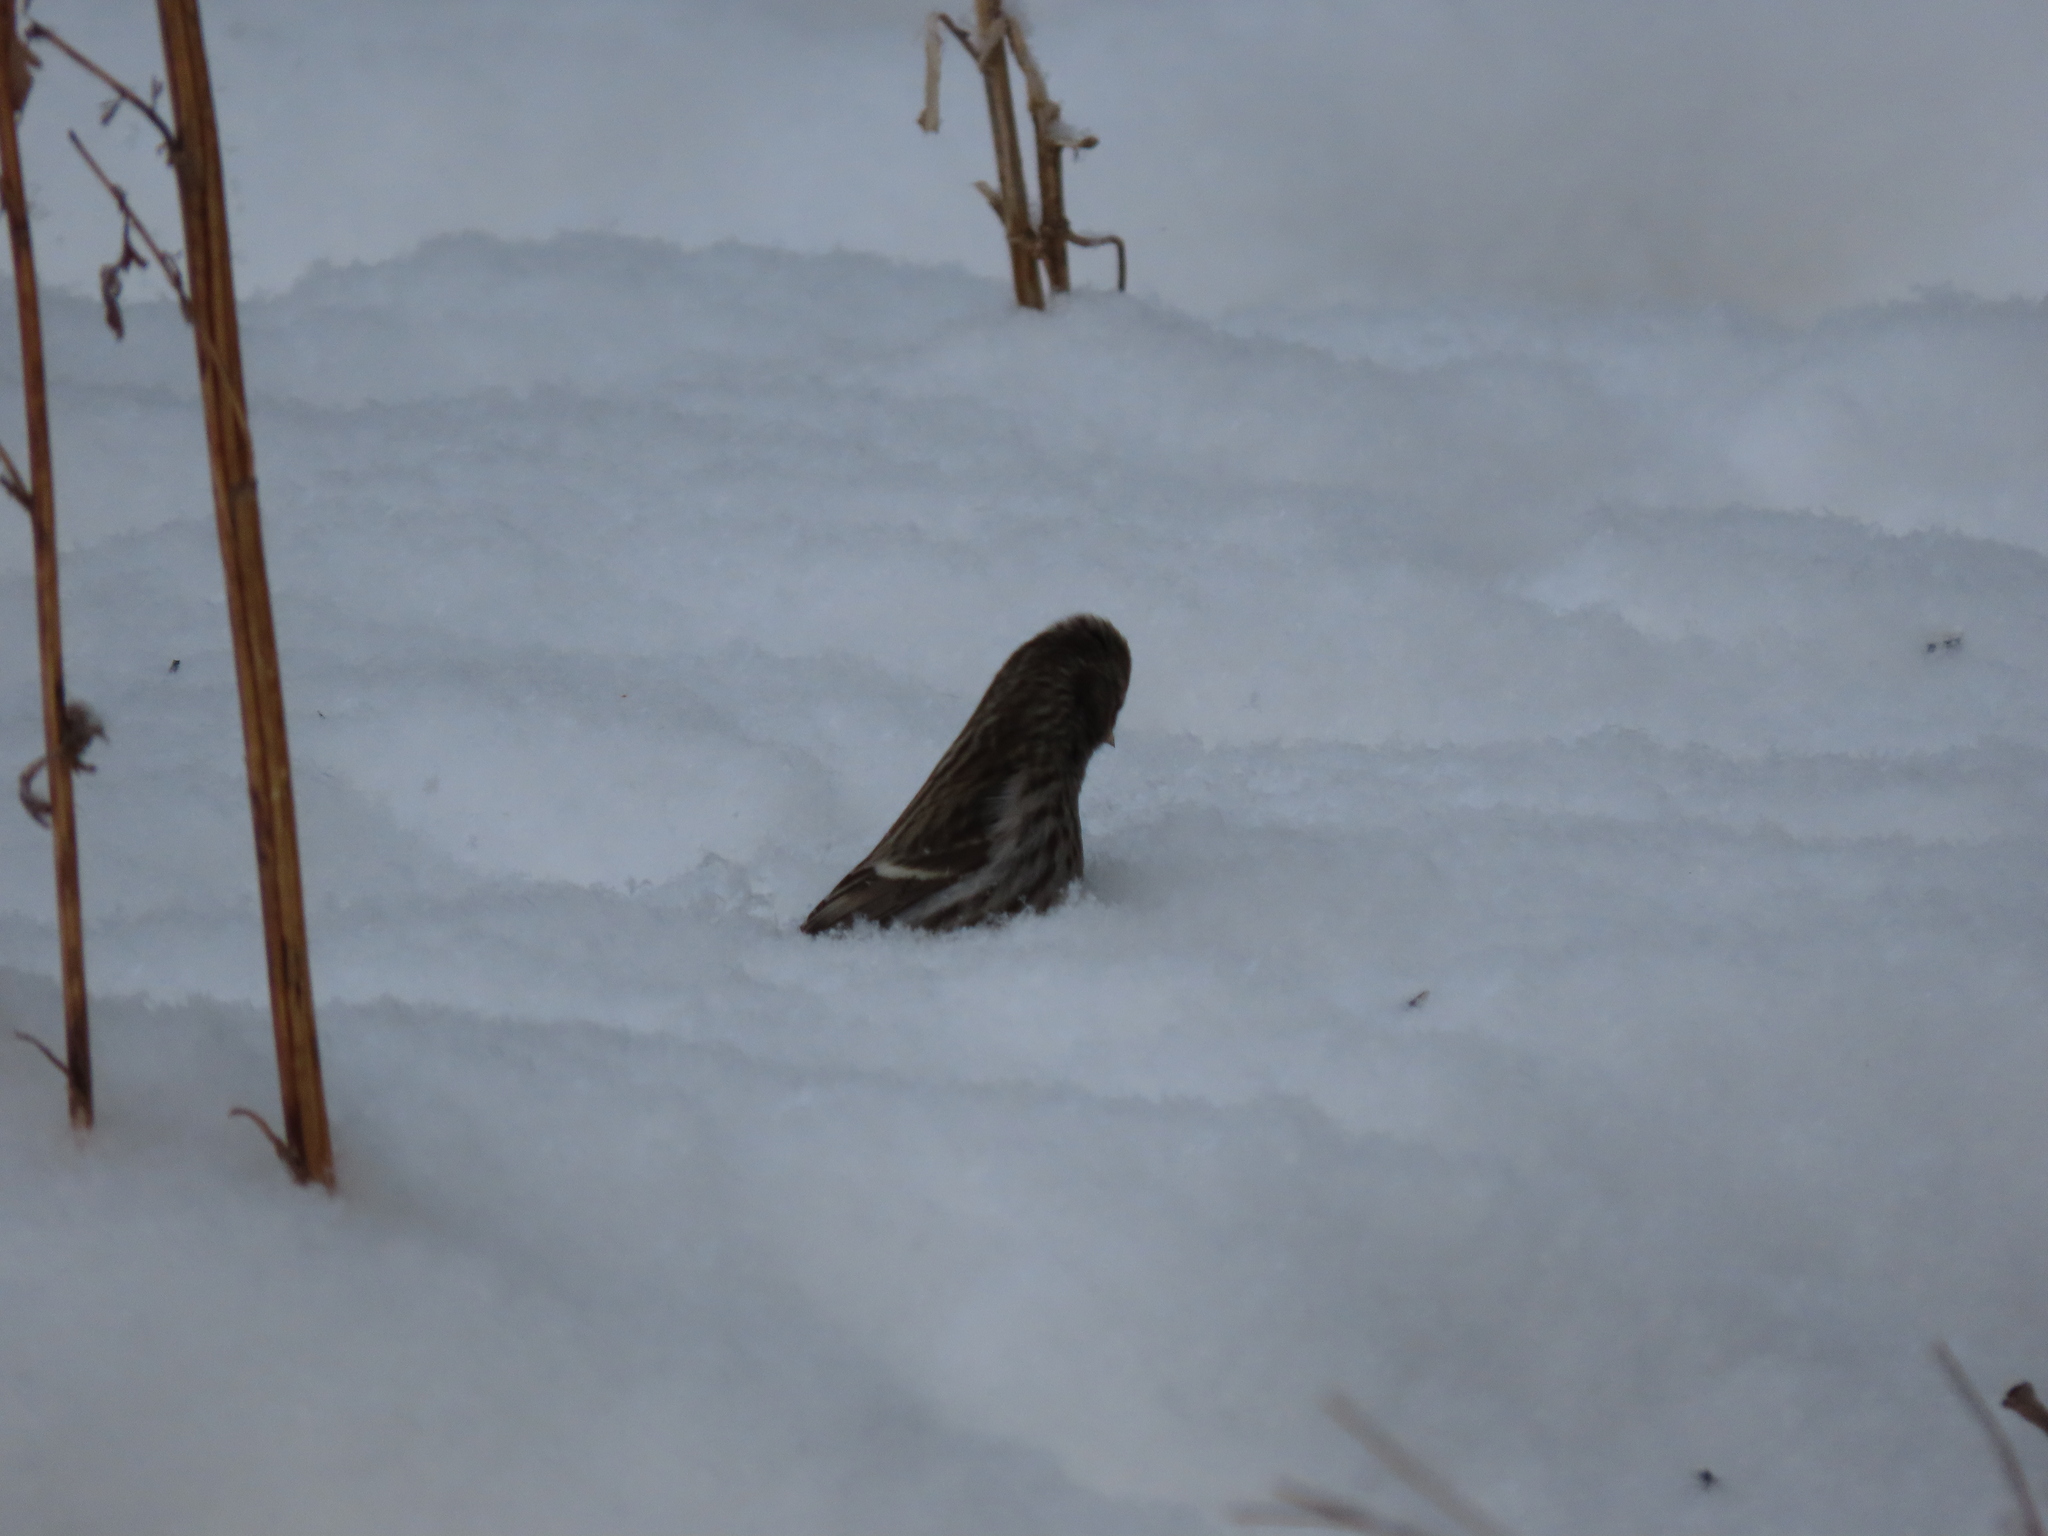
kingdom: Animalia
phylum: Chordata
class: Aves
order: Passeriformes
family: Fringillidae
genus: Acanthis
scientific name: Acanthis flammea
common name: Common redpoll
